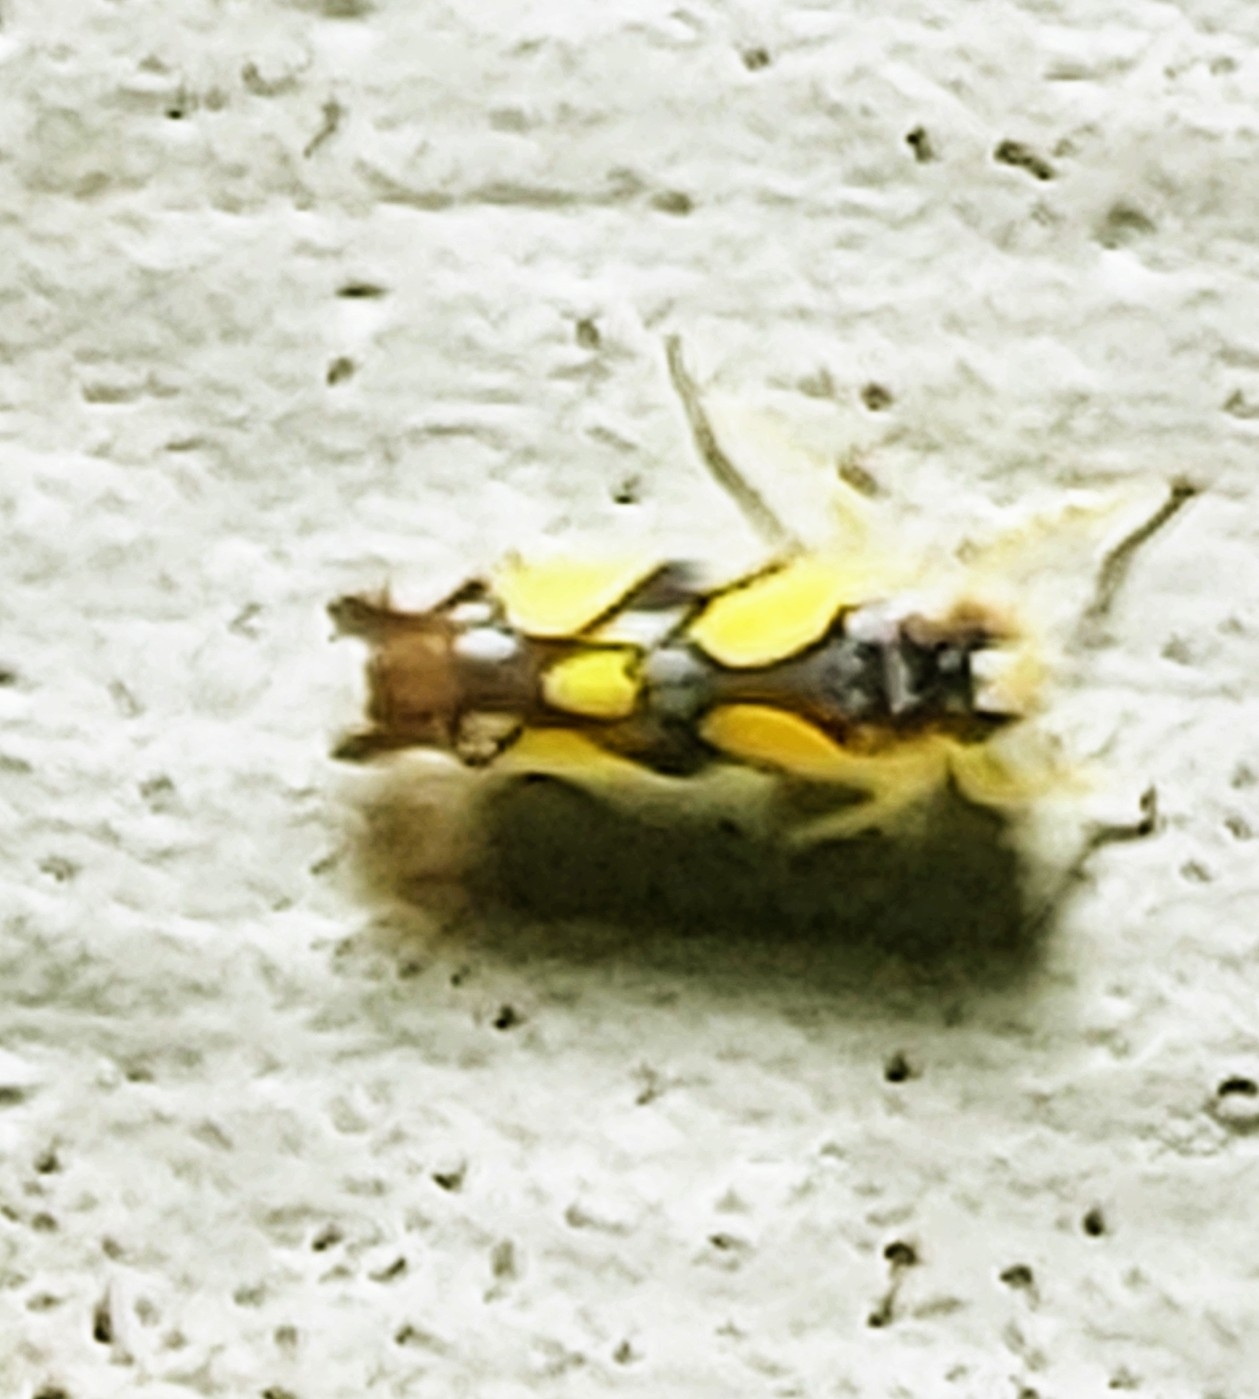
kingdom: Animalia
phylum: Arthropoda
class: Insecta
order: Hemiptera
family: Cicadellidae
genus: Protalebrella
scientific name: Protalebrella brasiliensis
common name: Brasilian leafhopper
